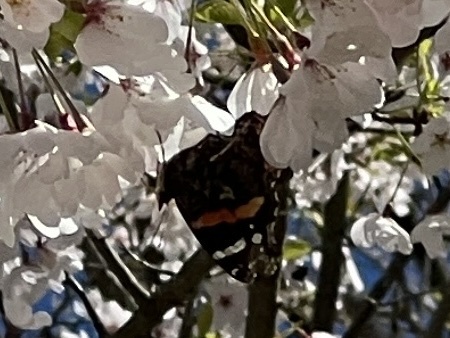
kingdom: Animalia
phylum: Arthropoda
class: Insecta
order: Lepidoptera
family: Nymphalidae
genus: Vanessa
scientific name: Vanessa atalanta
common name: Red admiral
